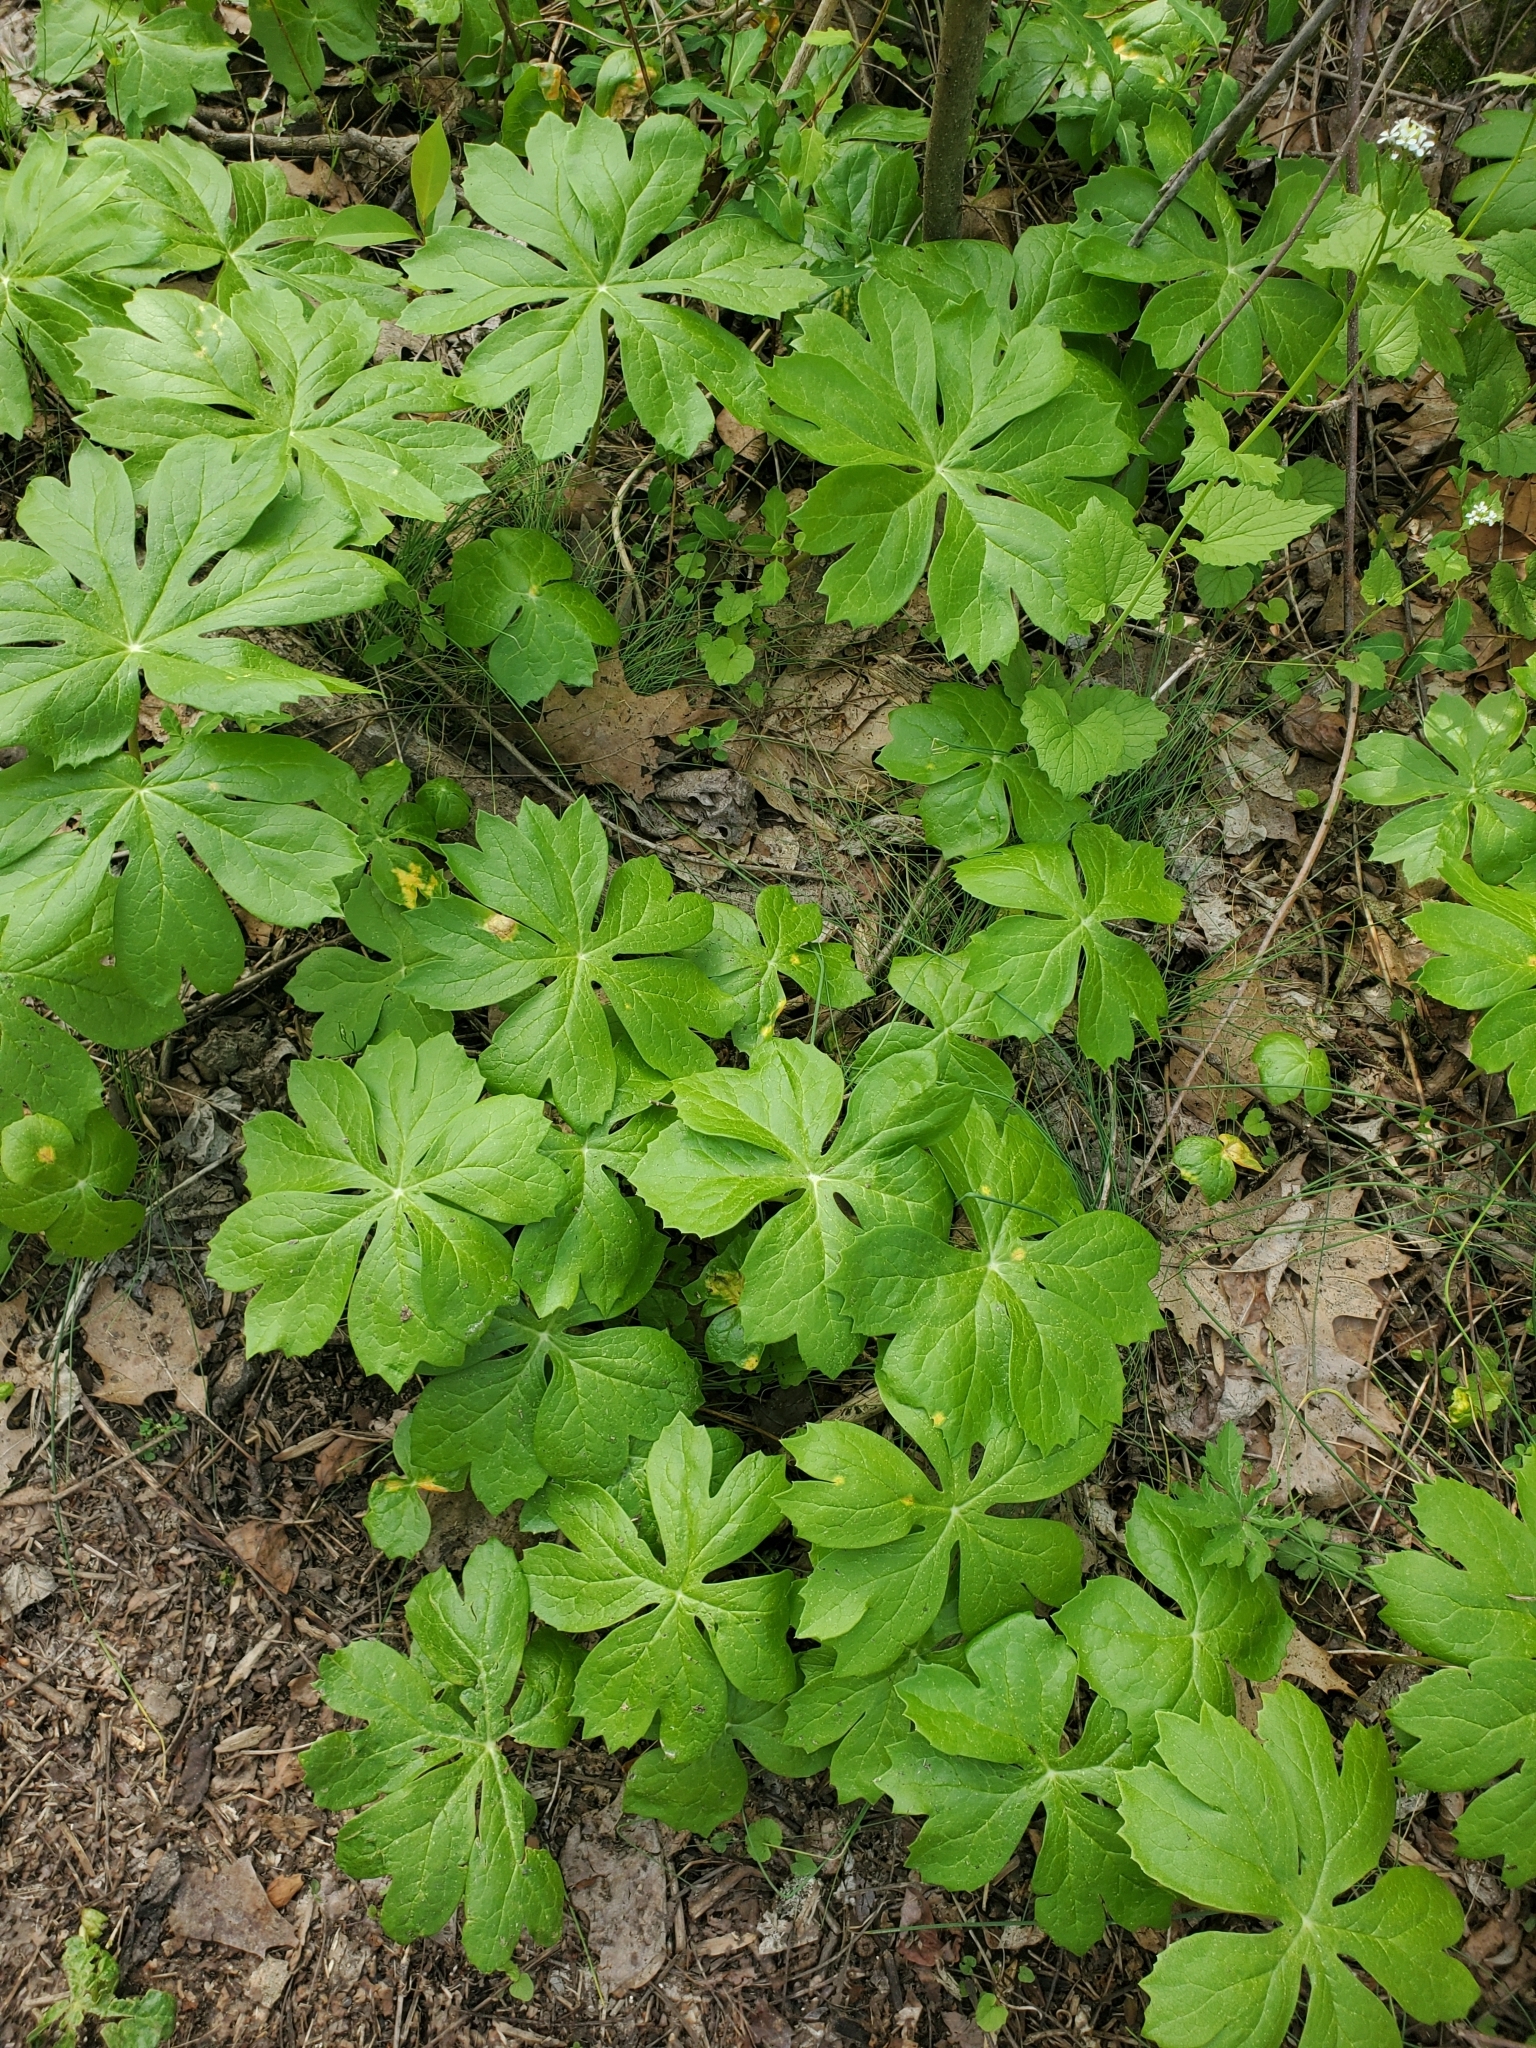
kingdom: Fungi
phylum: Basidiomycota
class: Pucciniomycetes
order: Pucciniales
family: Pucciniaceae
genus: Puccinia
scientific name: Puccinia podophylli
